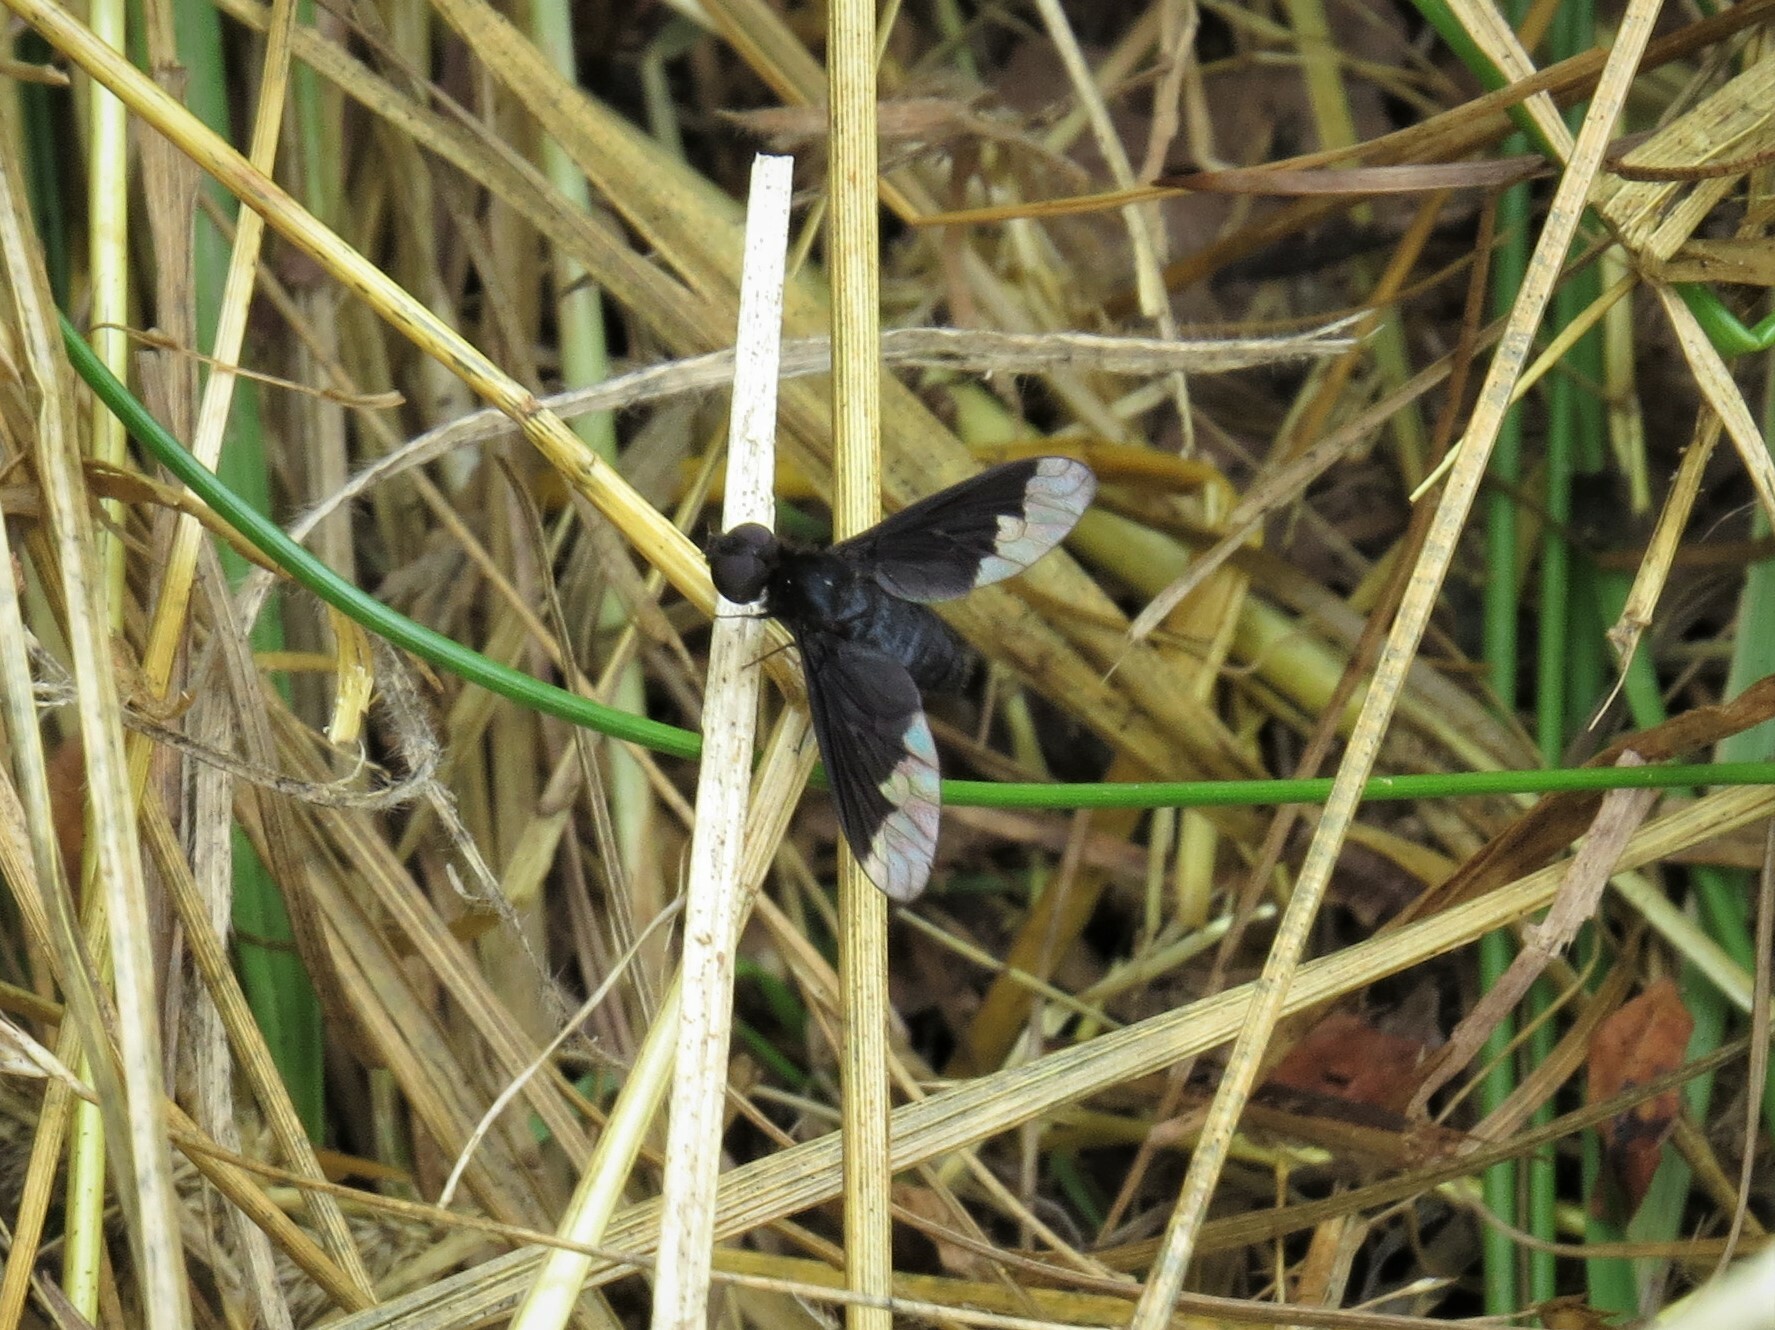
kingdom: Animalia
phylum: Arthropoda
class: Insecta
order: Diptera
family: Bombyliidae
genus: Anthrax
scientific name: Anthrax analis
